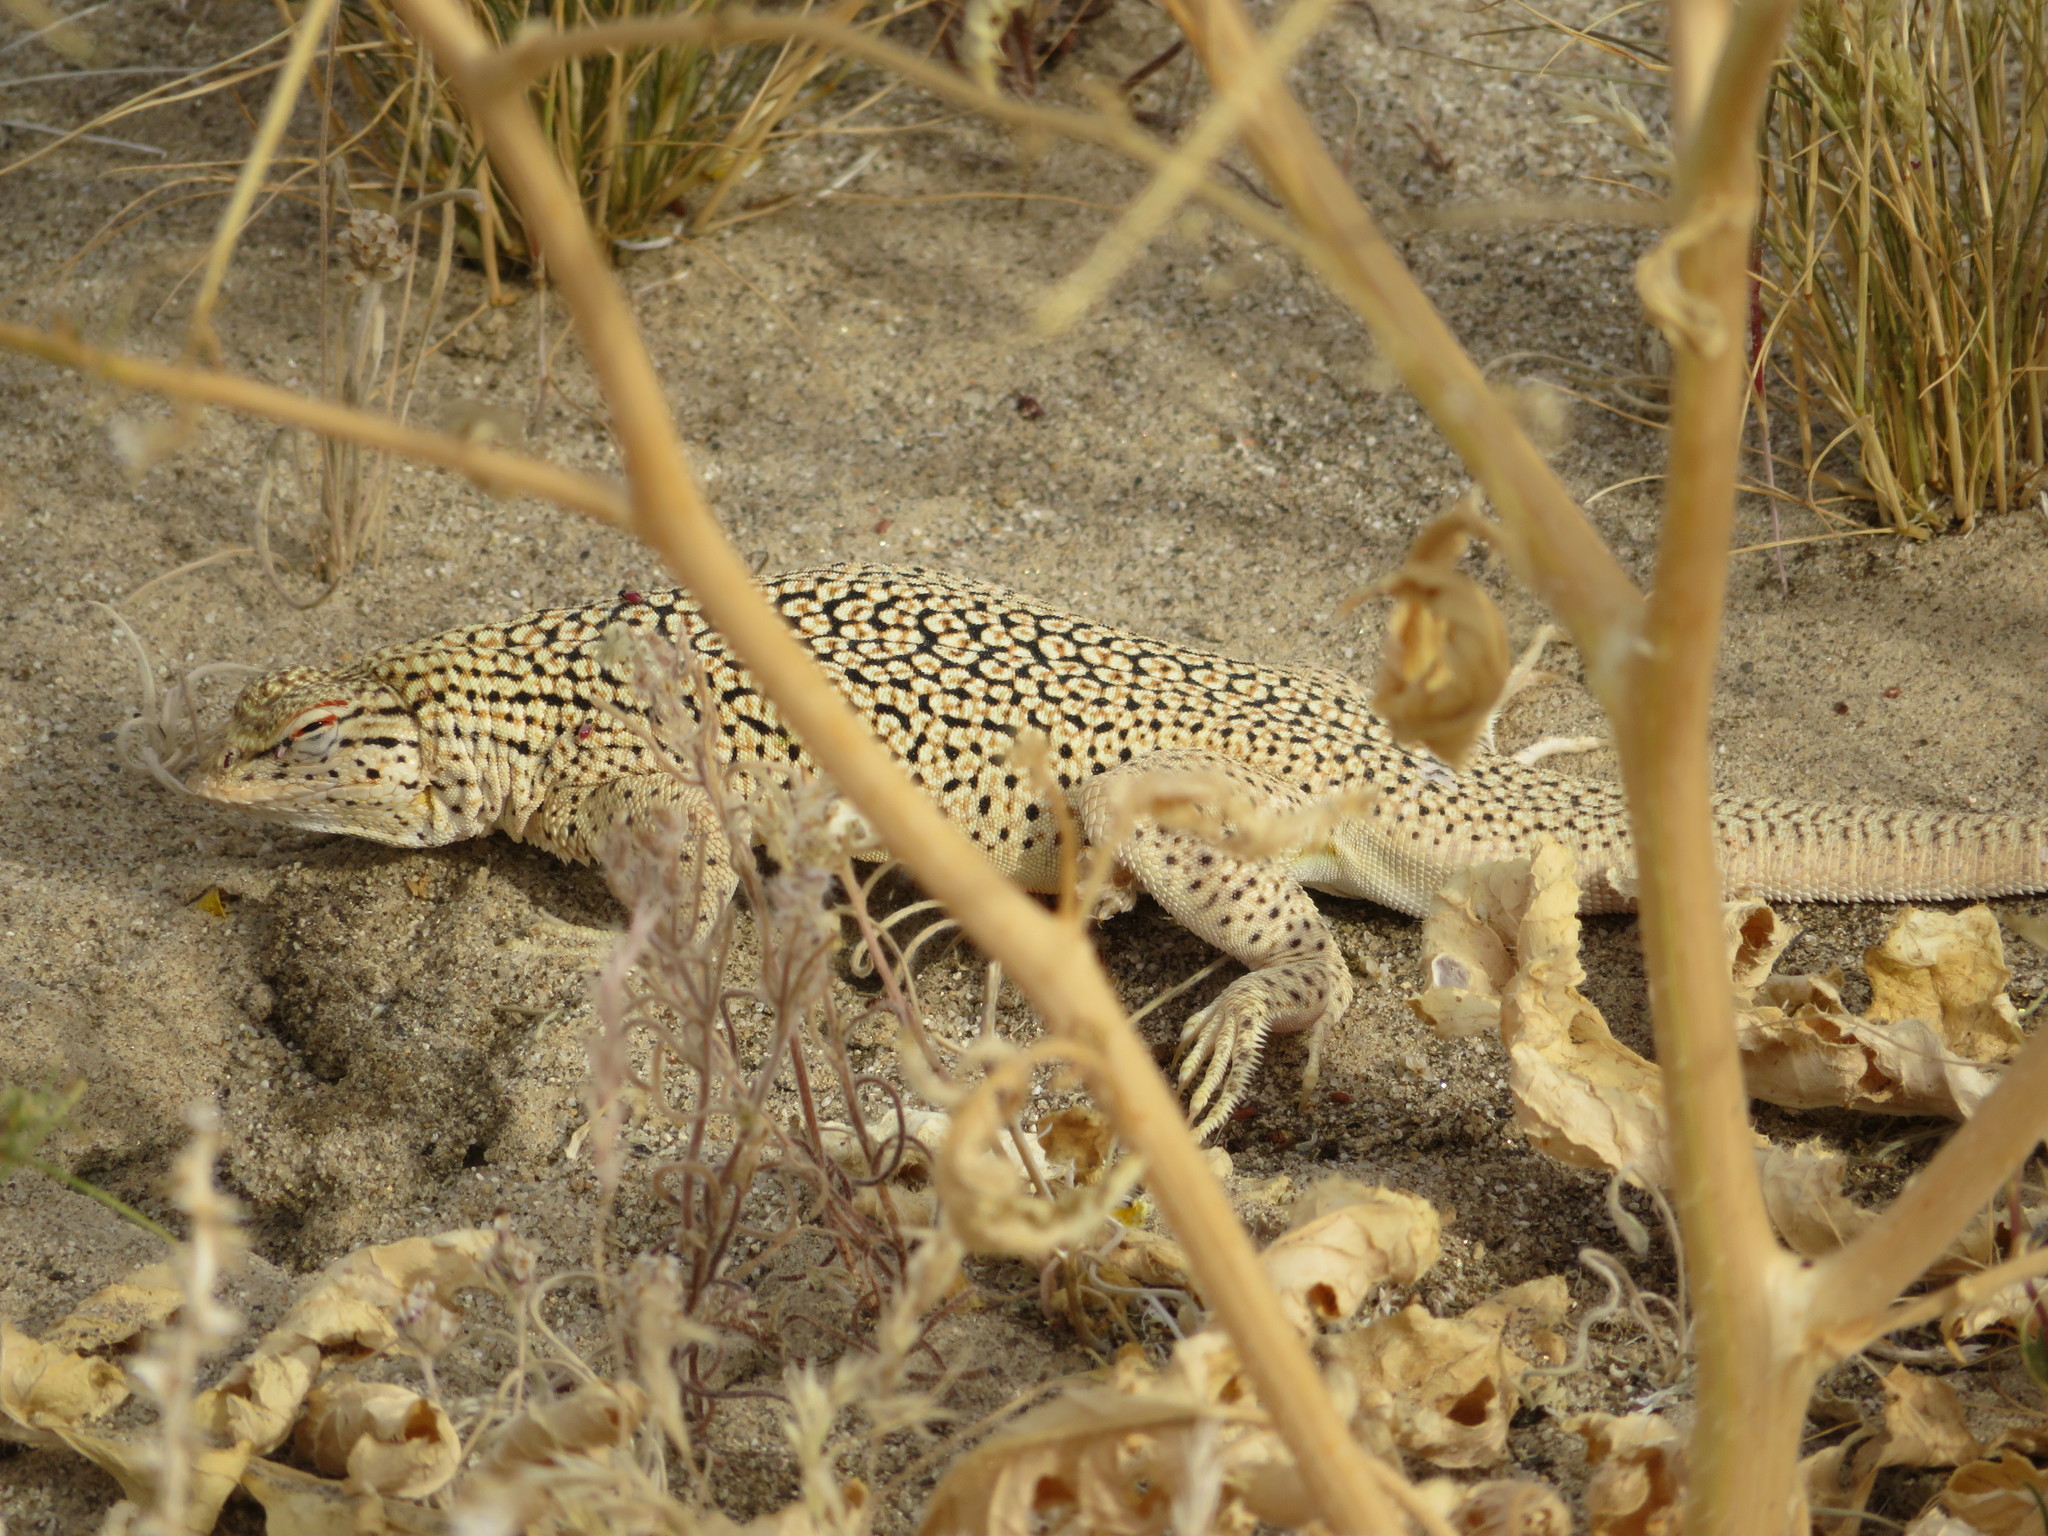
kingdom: Animalia
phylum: Chordata
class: Squamata
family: Phrynosomatidae
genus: Uma
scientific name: Uma notata
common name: Colorado desert fringe-toed lizard
